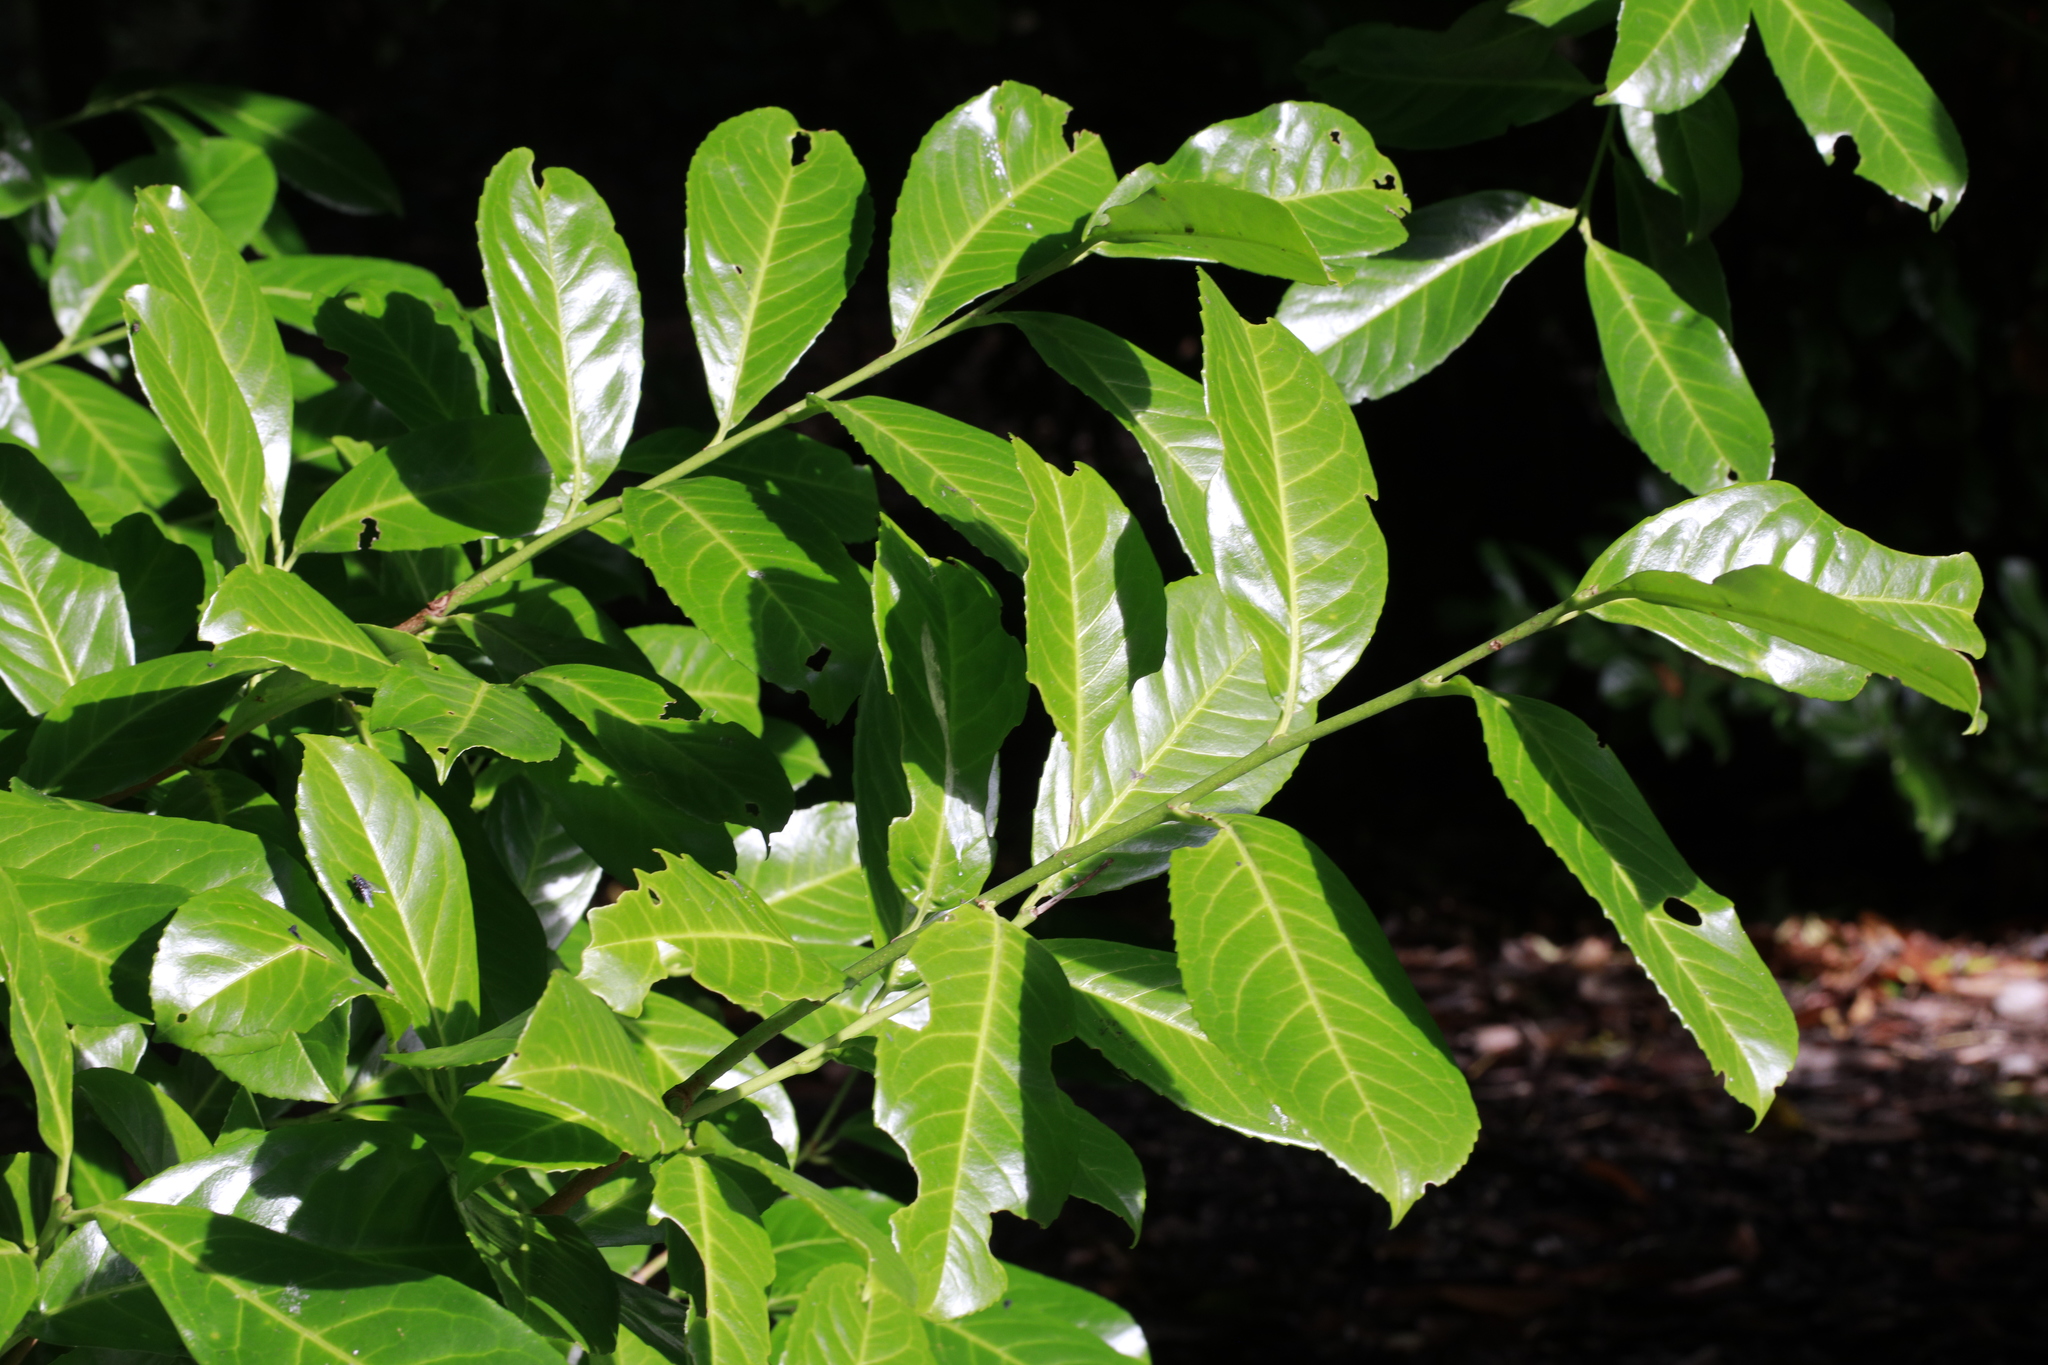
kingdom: Plantae
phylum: Tracheophyta
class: Magnoliopsida
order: Rosales
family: Rosaceae
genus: Prunus
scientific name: Prunus laurocerasus
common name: Cherry laurel
